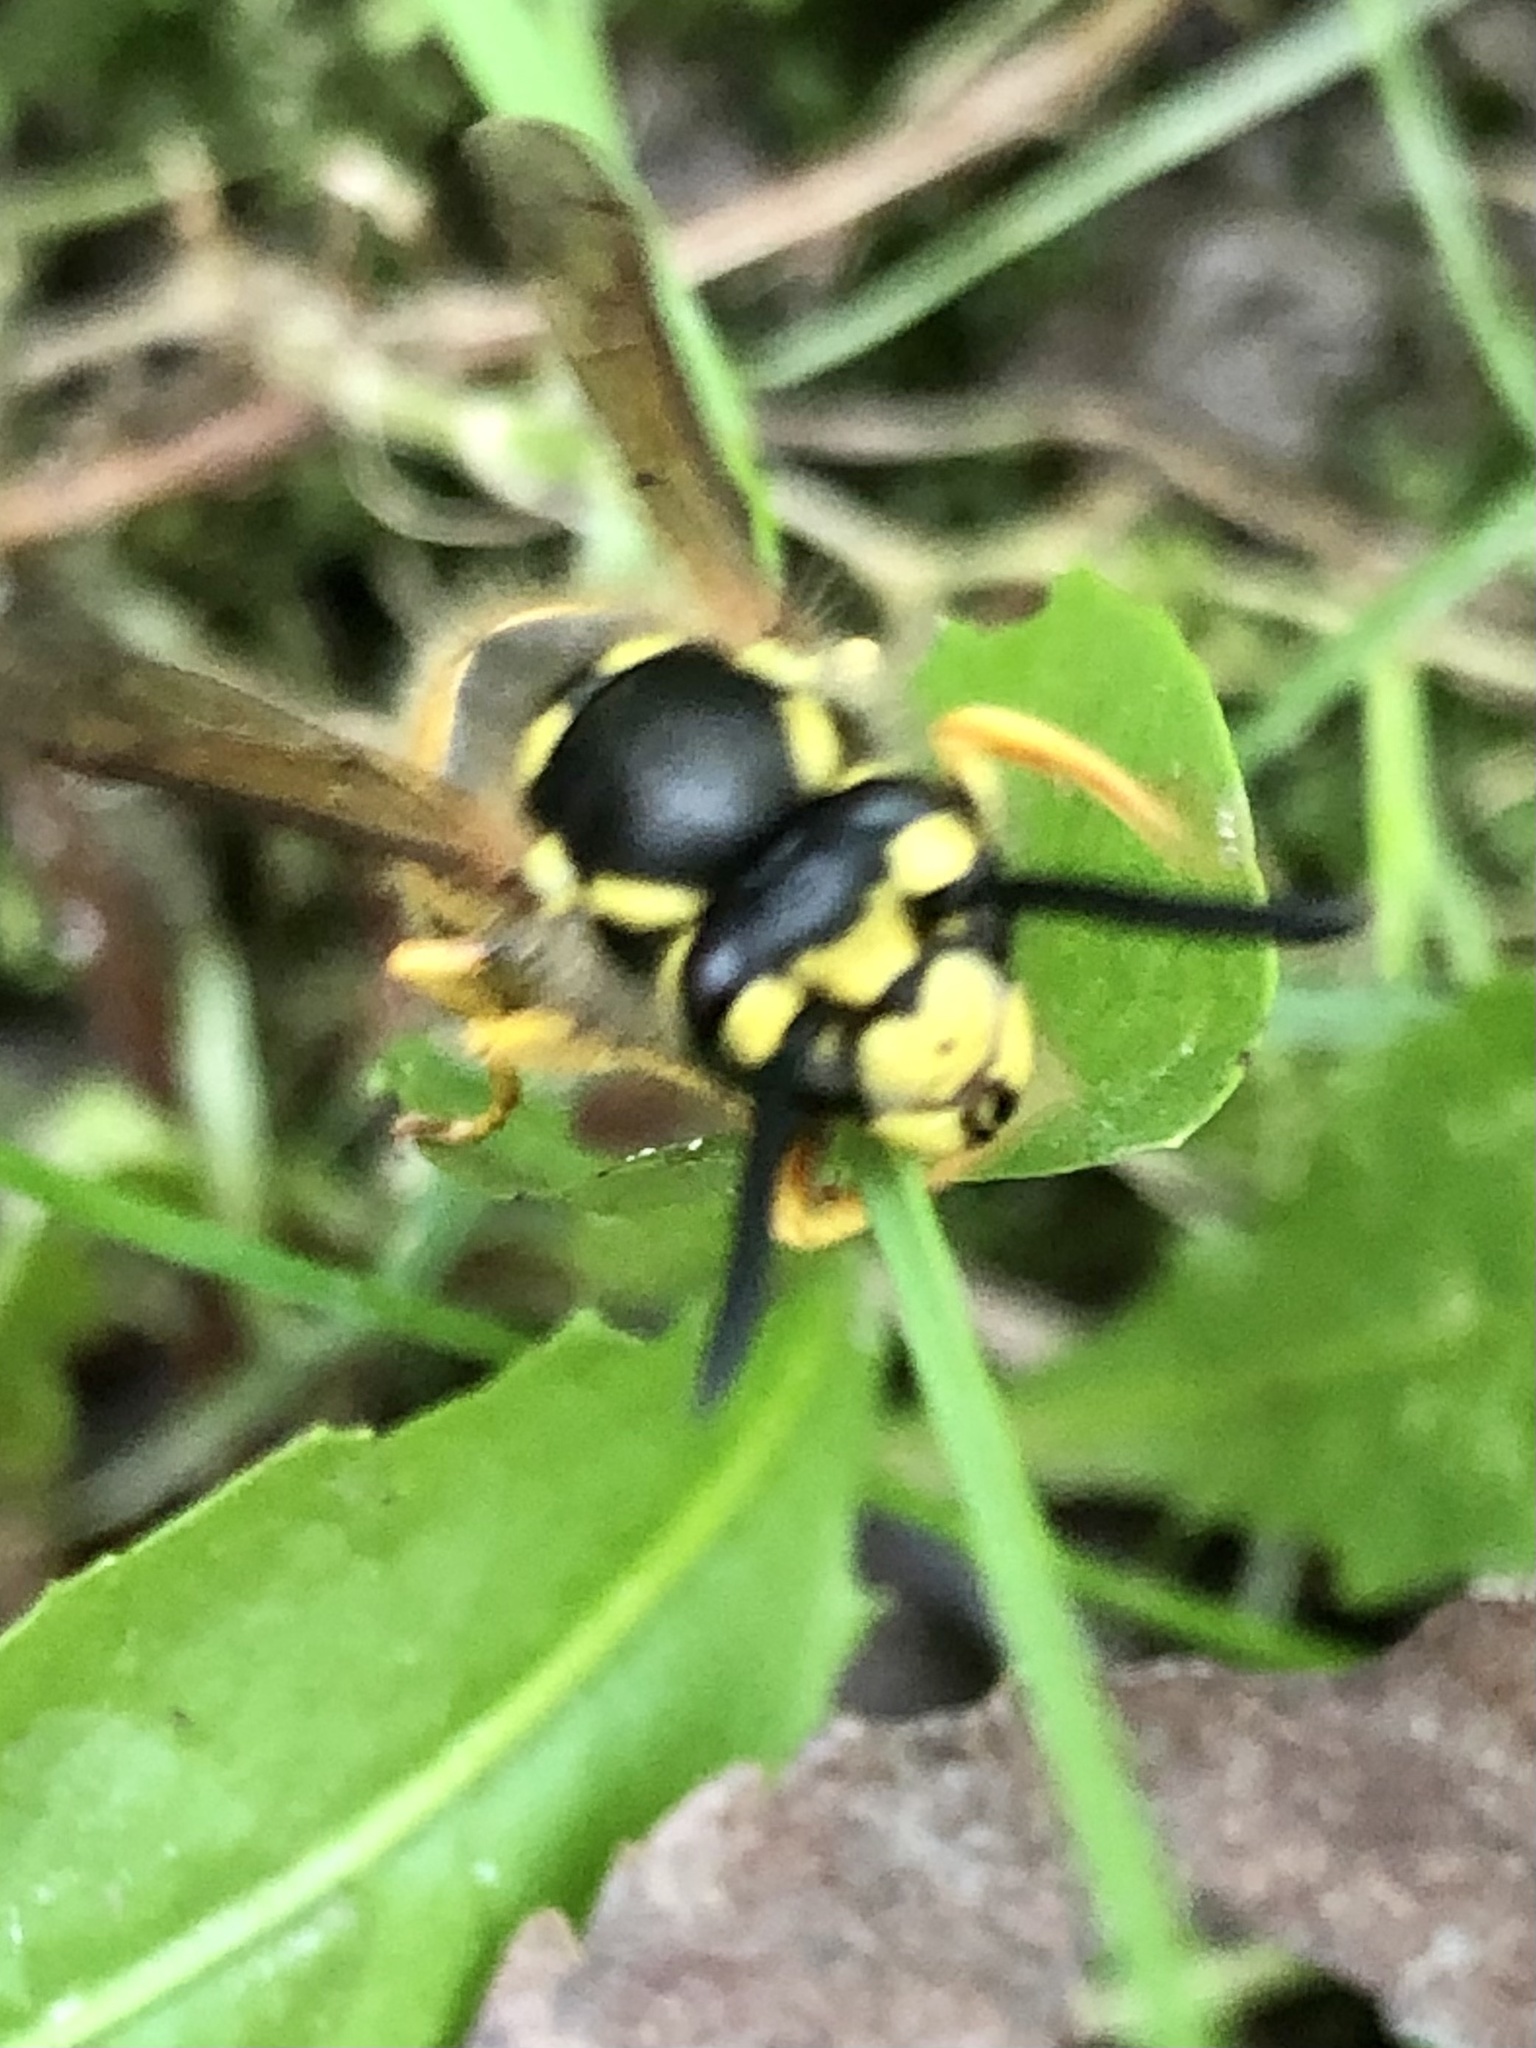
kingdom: Animalia
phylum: Arthropoda
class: Insecta
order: Hymenoptera
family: Vespidae
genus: Vespula
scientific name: Vespula germanica
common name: German wasp
